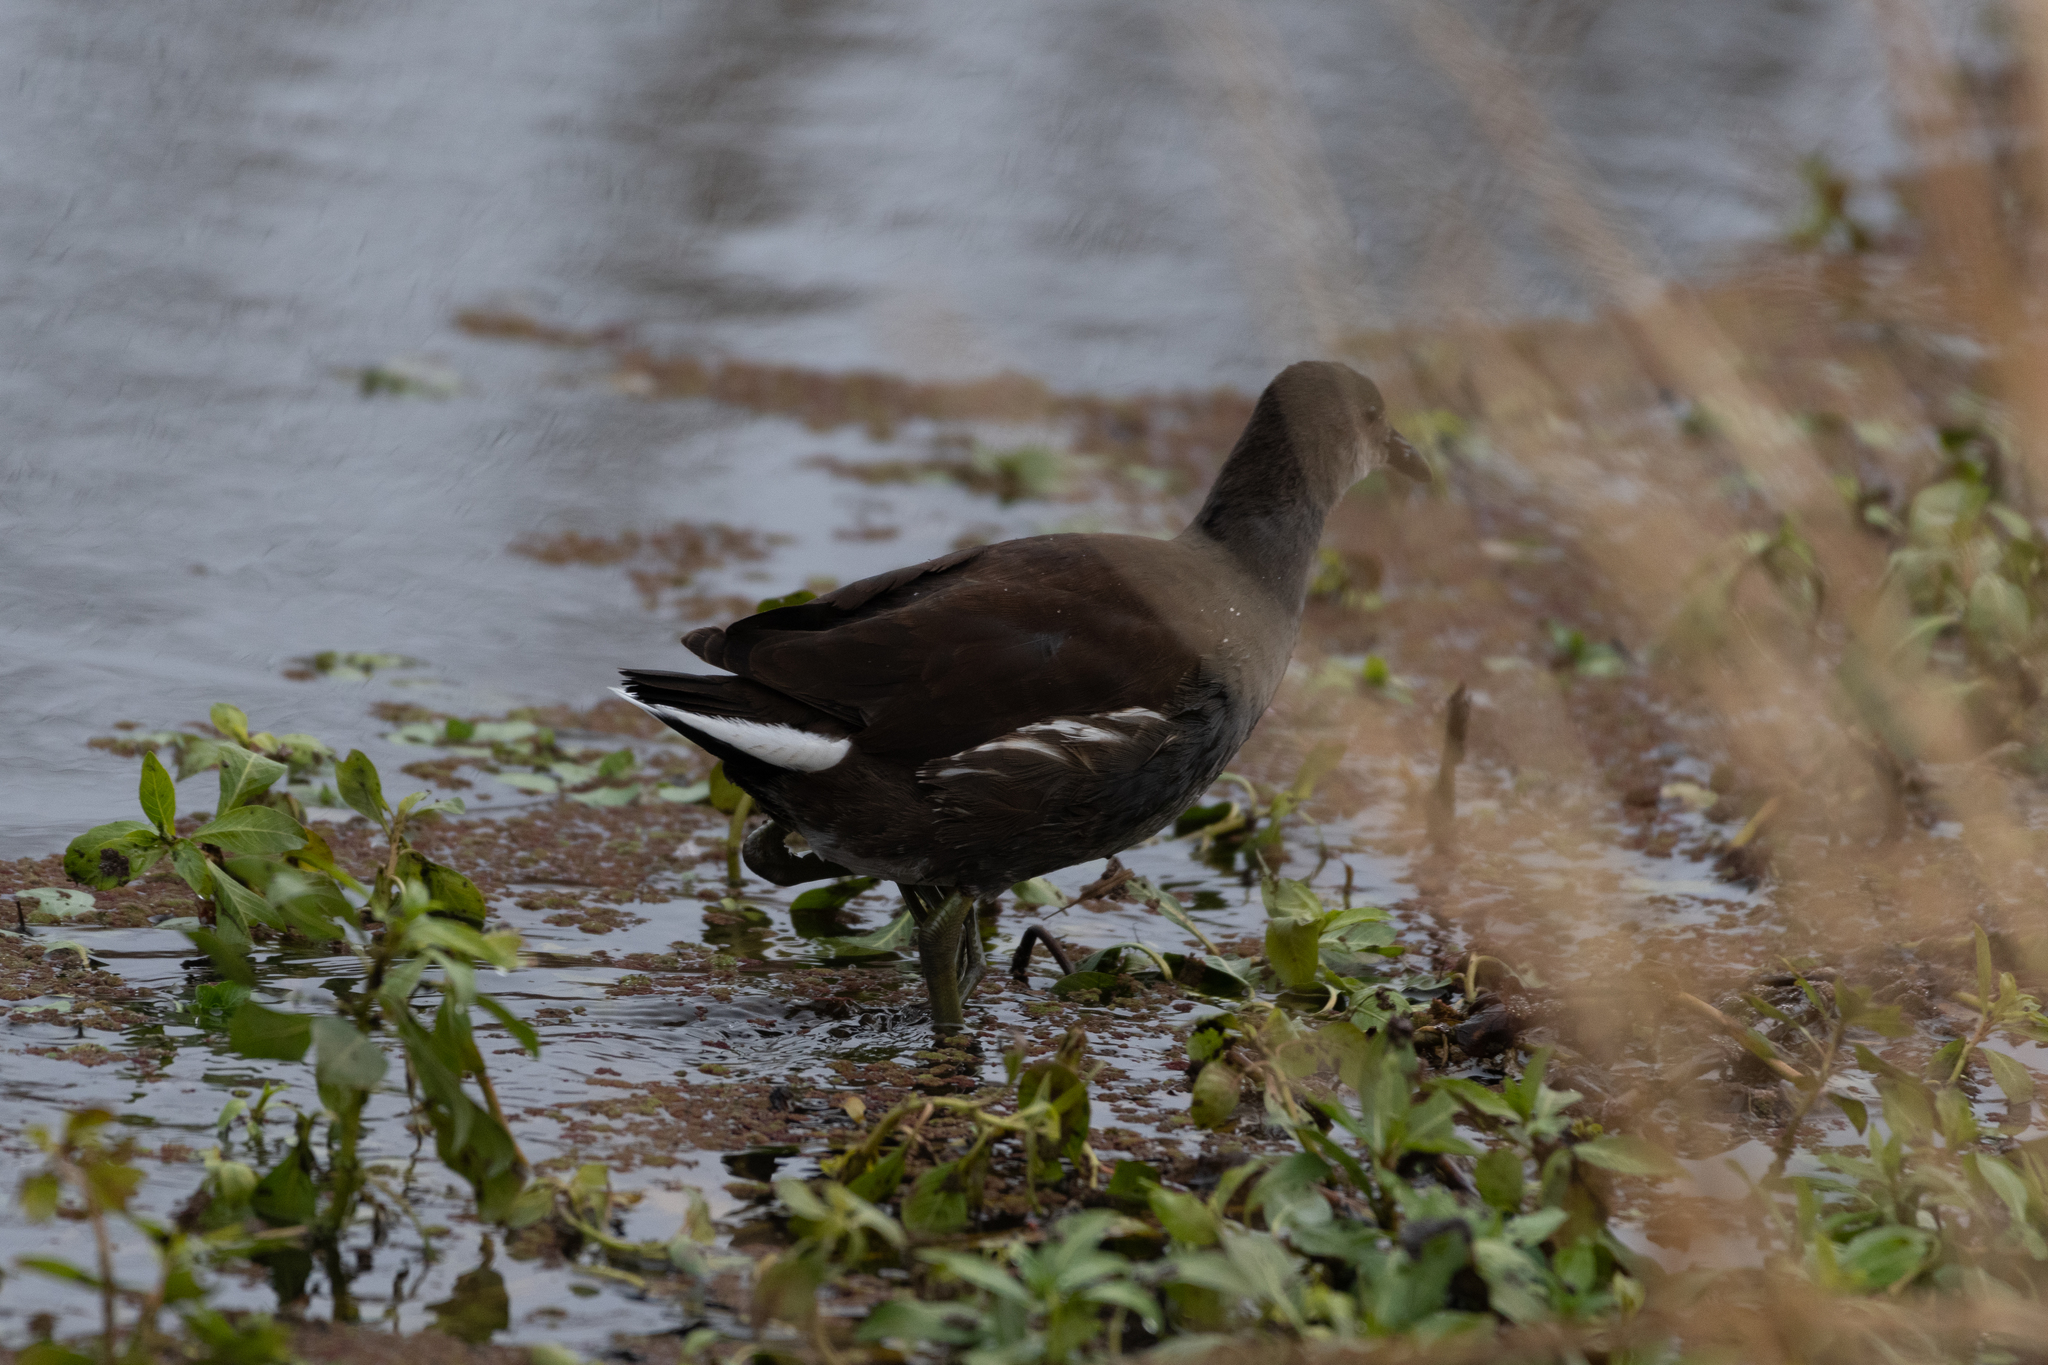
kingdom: Animalia
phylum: Chordata
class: Aves
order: Gruiformes
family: Rallidae
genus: Gallinula
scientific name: Gallinula chloropus
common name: Common moorhen
